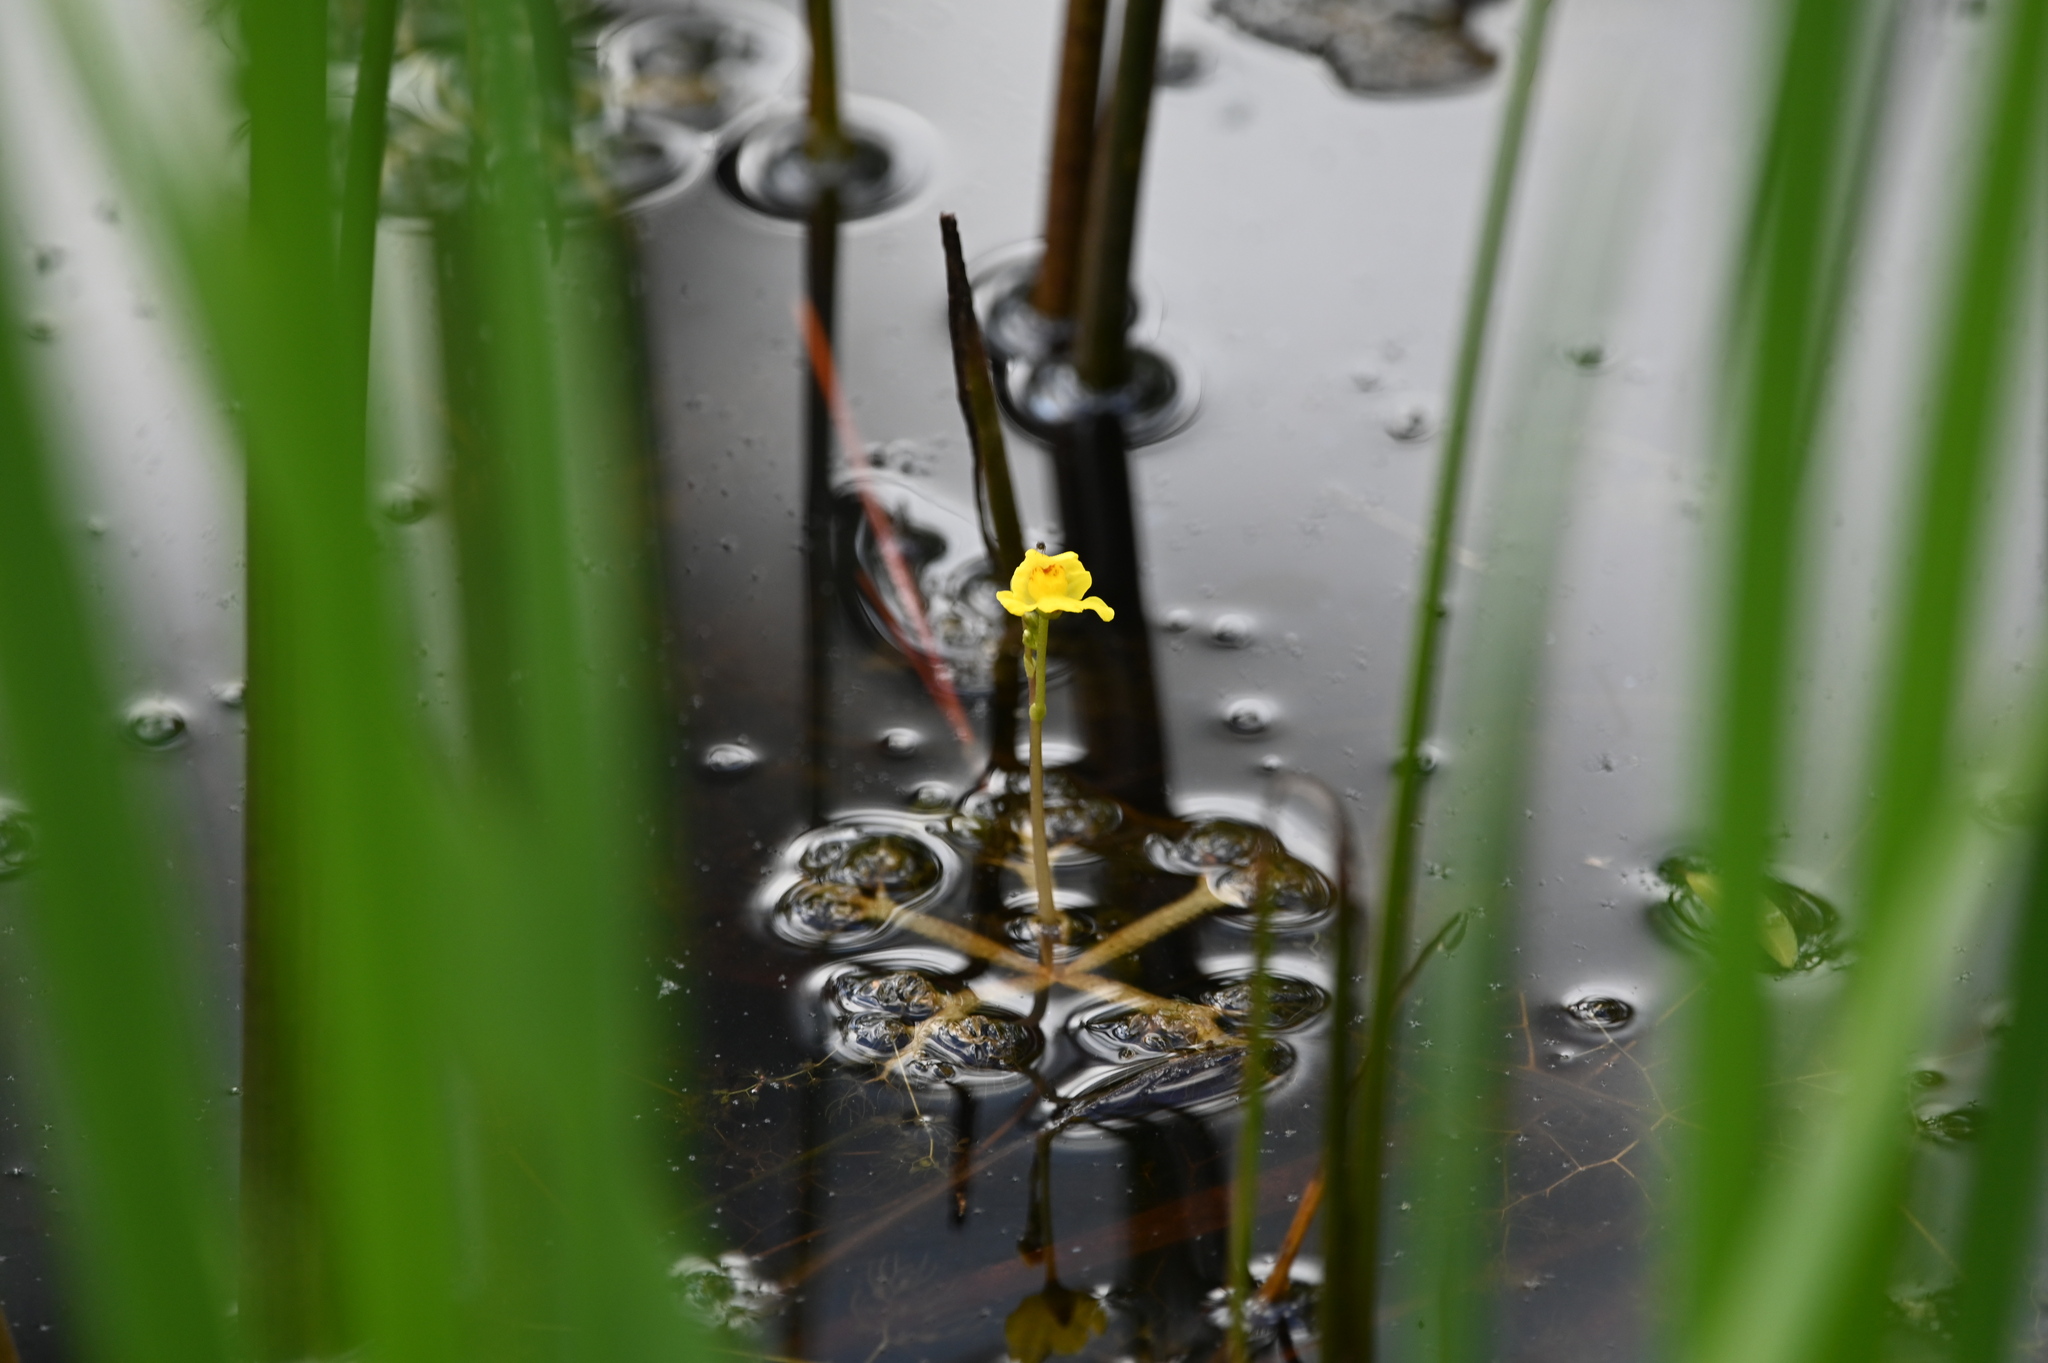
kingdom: Plantae
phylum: Tracheophyta
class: Magnoliopsida
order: Lamiales
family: Lentibulariaceae
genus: Utricularia
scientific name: Utricularia radiata
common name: Floating bladderwort
